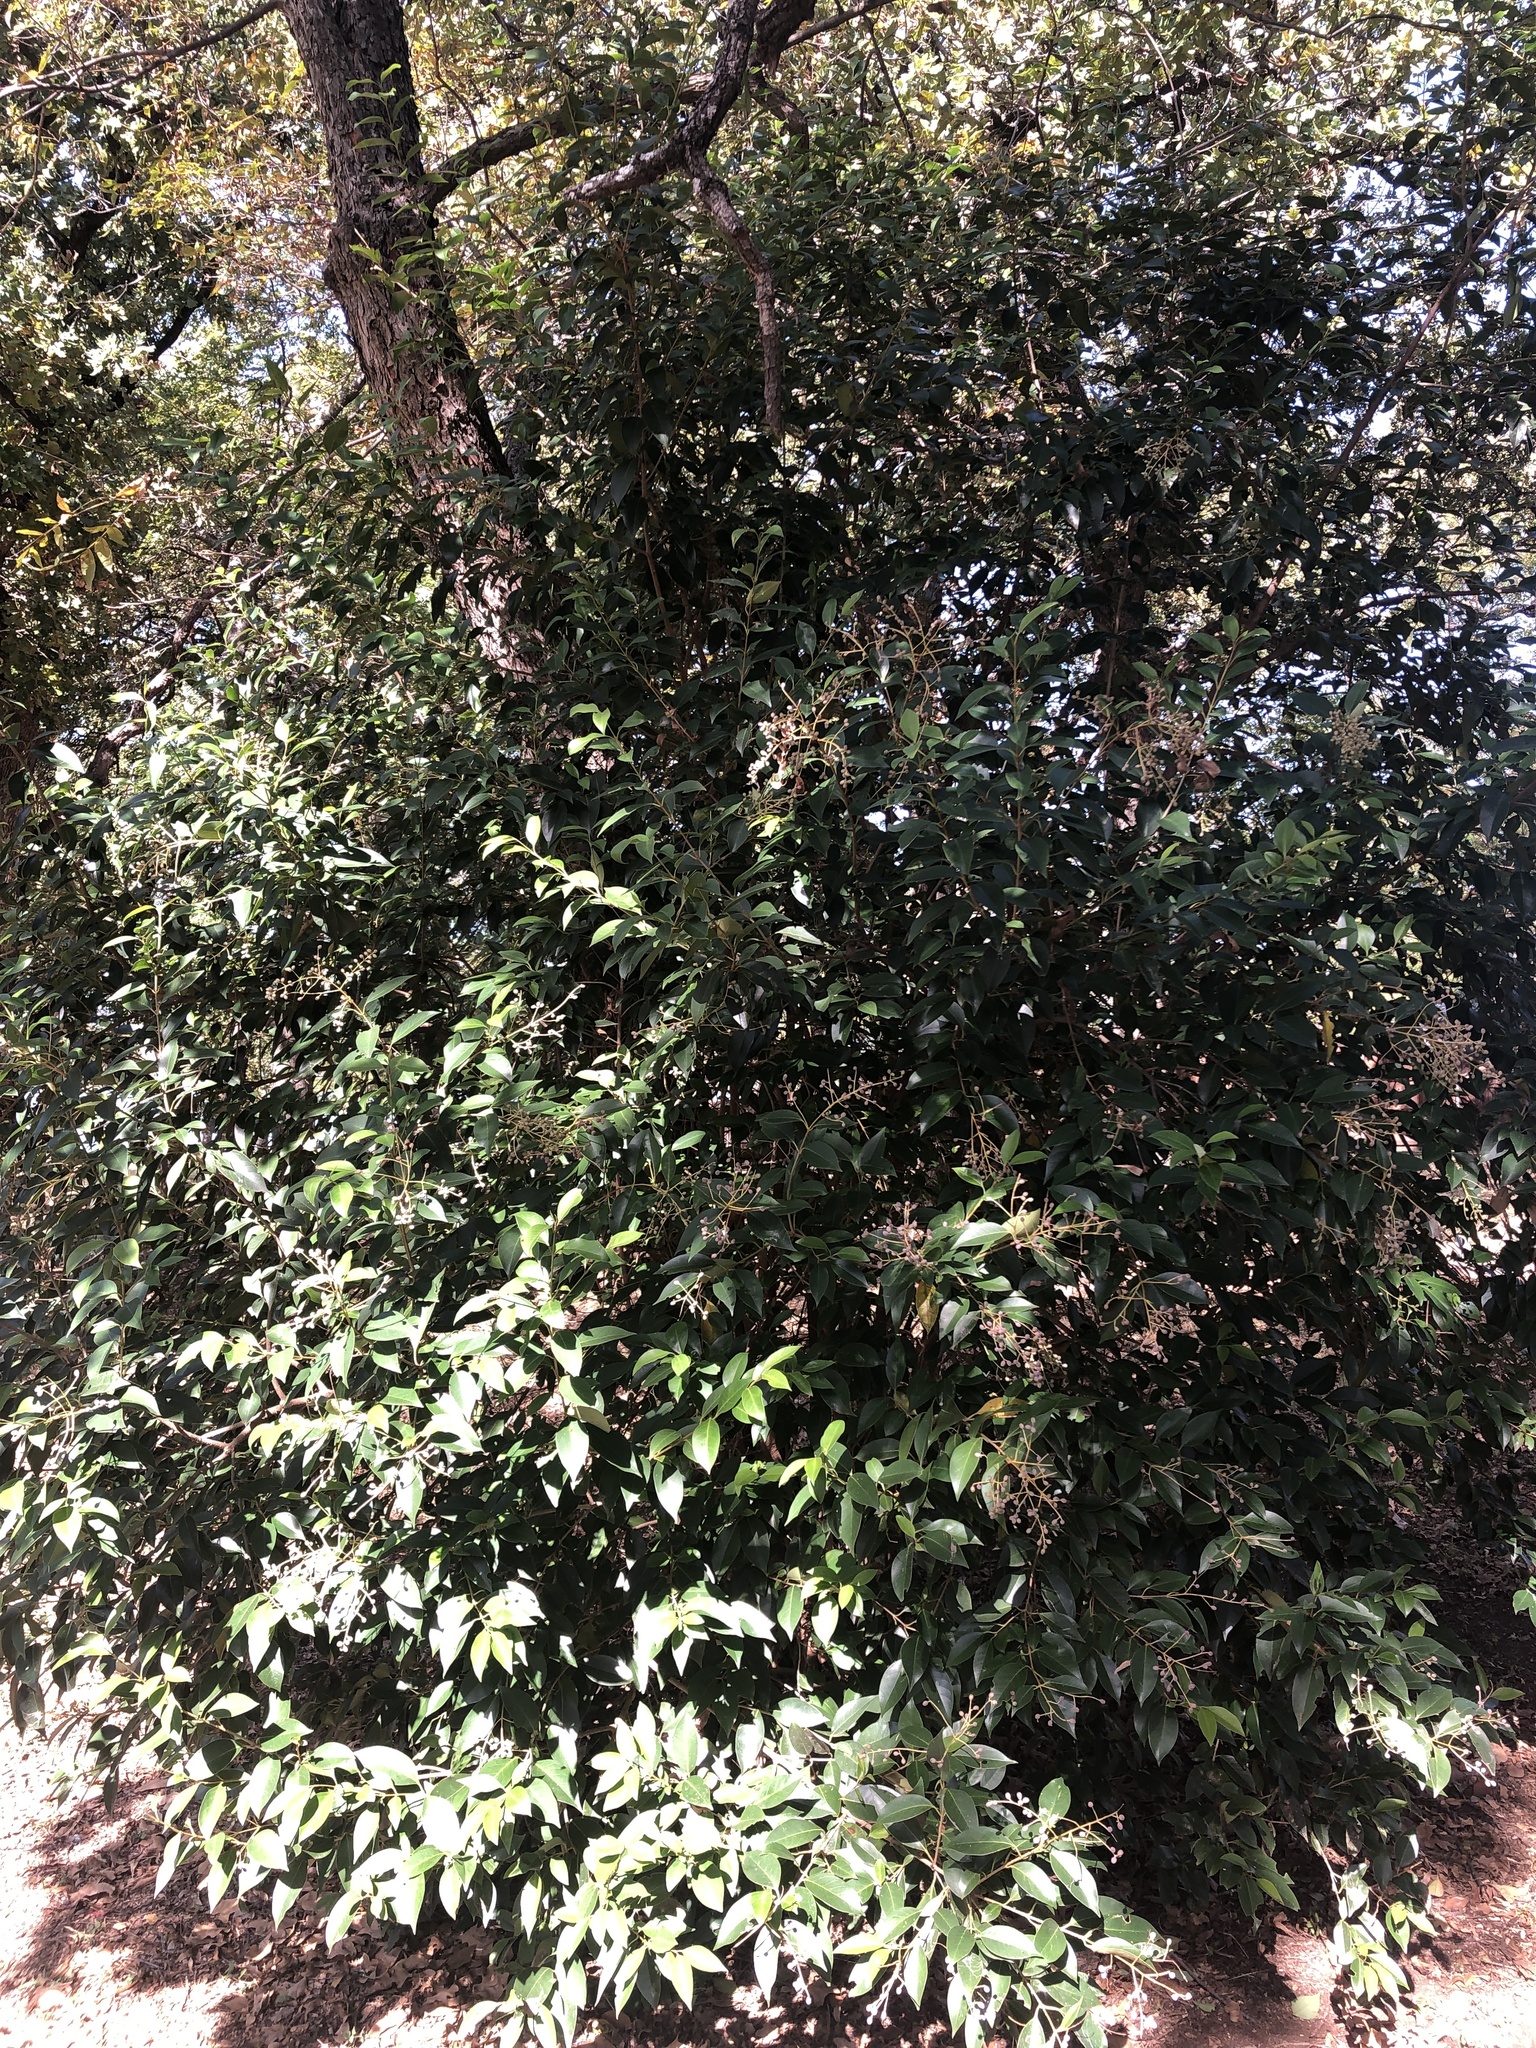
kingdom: Plantae
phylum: Tracheophyta
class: Magnoliopsida
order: Lamiales
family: Oleaceae
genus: Ligustrum
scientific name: Ligustrum lucidum
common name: Glossy privet
